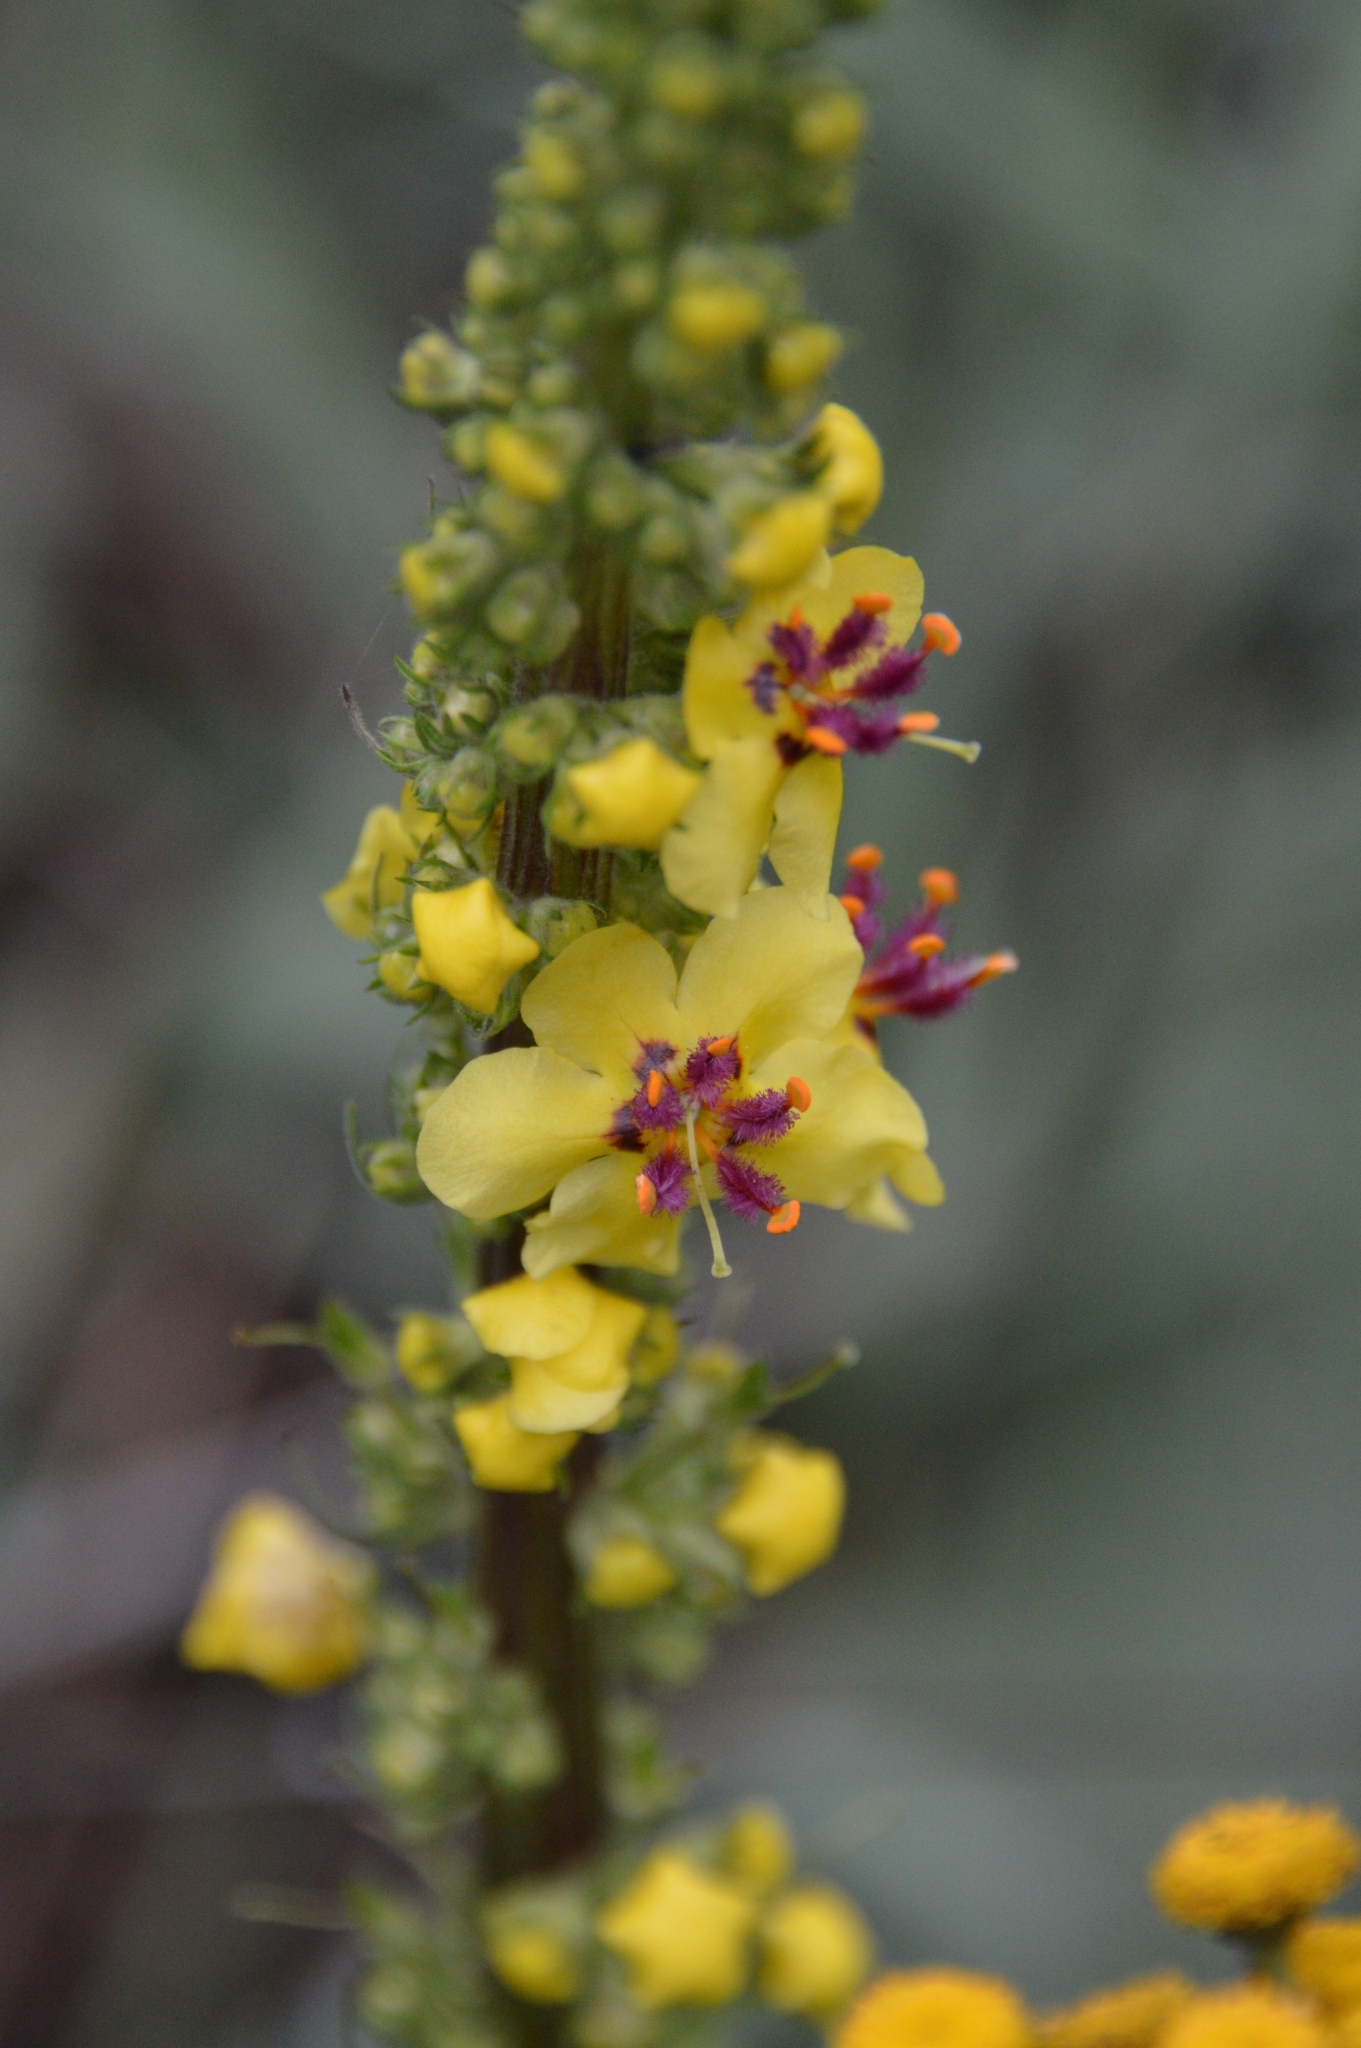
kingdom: Plantae
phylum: Tracheophyta
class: Magnoliopsida
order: Lamiales
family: Scrophulariaceae
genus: Verbascum
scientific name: Verbascum nigrum
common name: Dark mullein
